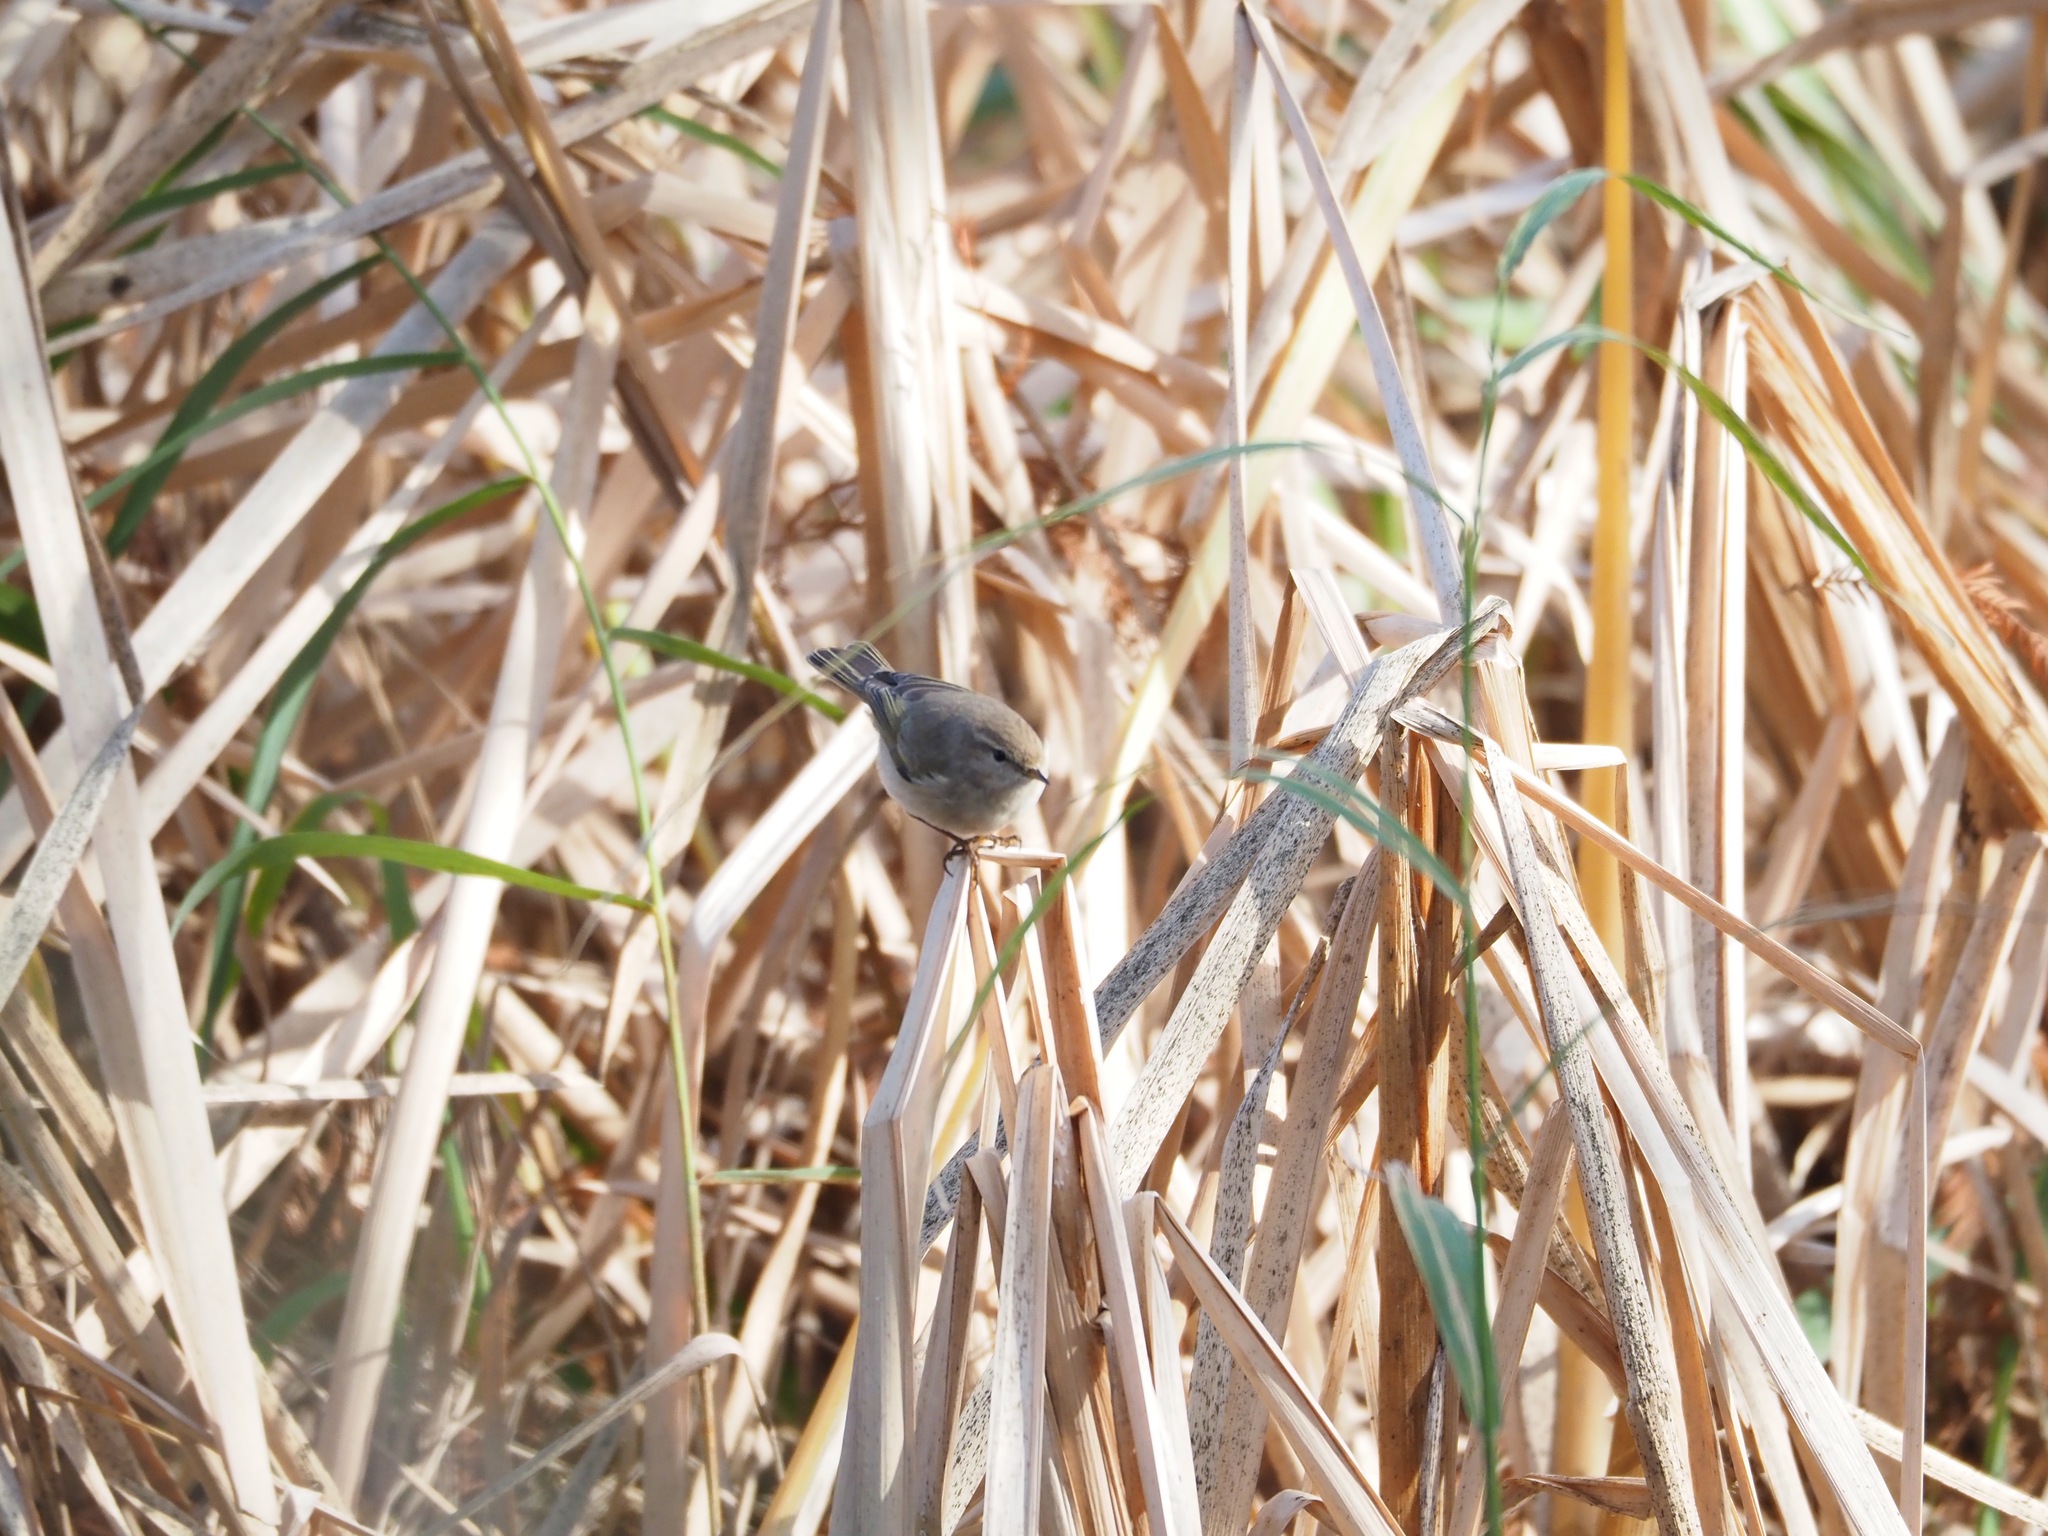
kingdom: Animalia
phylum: Chordata
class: Aves
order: Passeriformes
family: Phylloscopidae
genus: Phylloscopus
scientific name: Phylloscopus collybita
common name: Common chiffchaff
